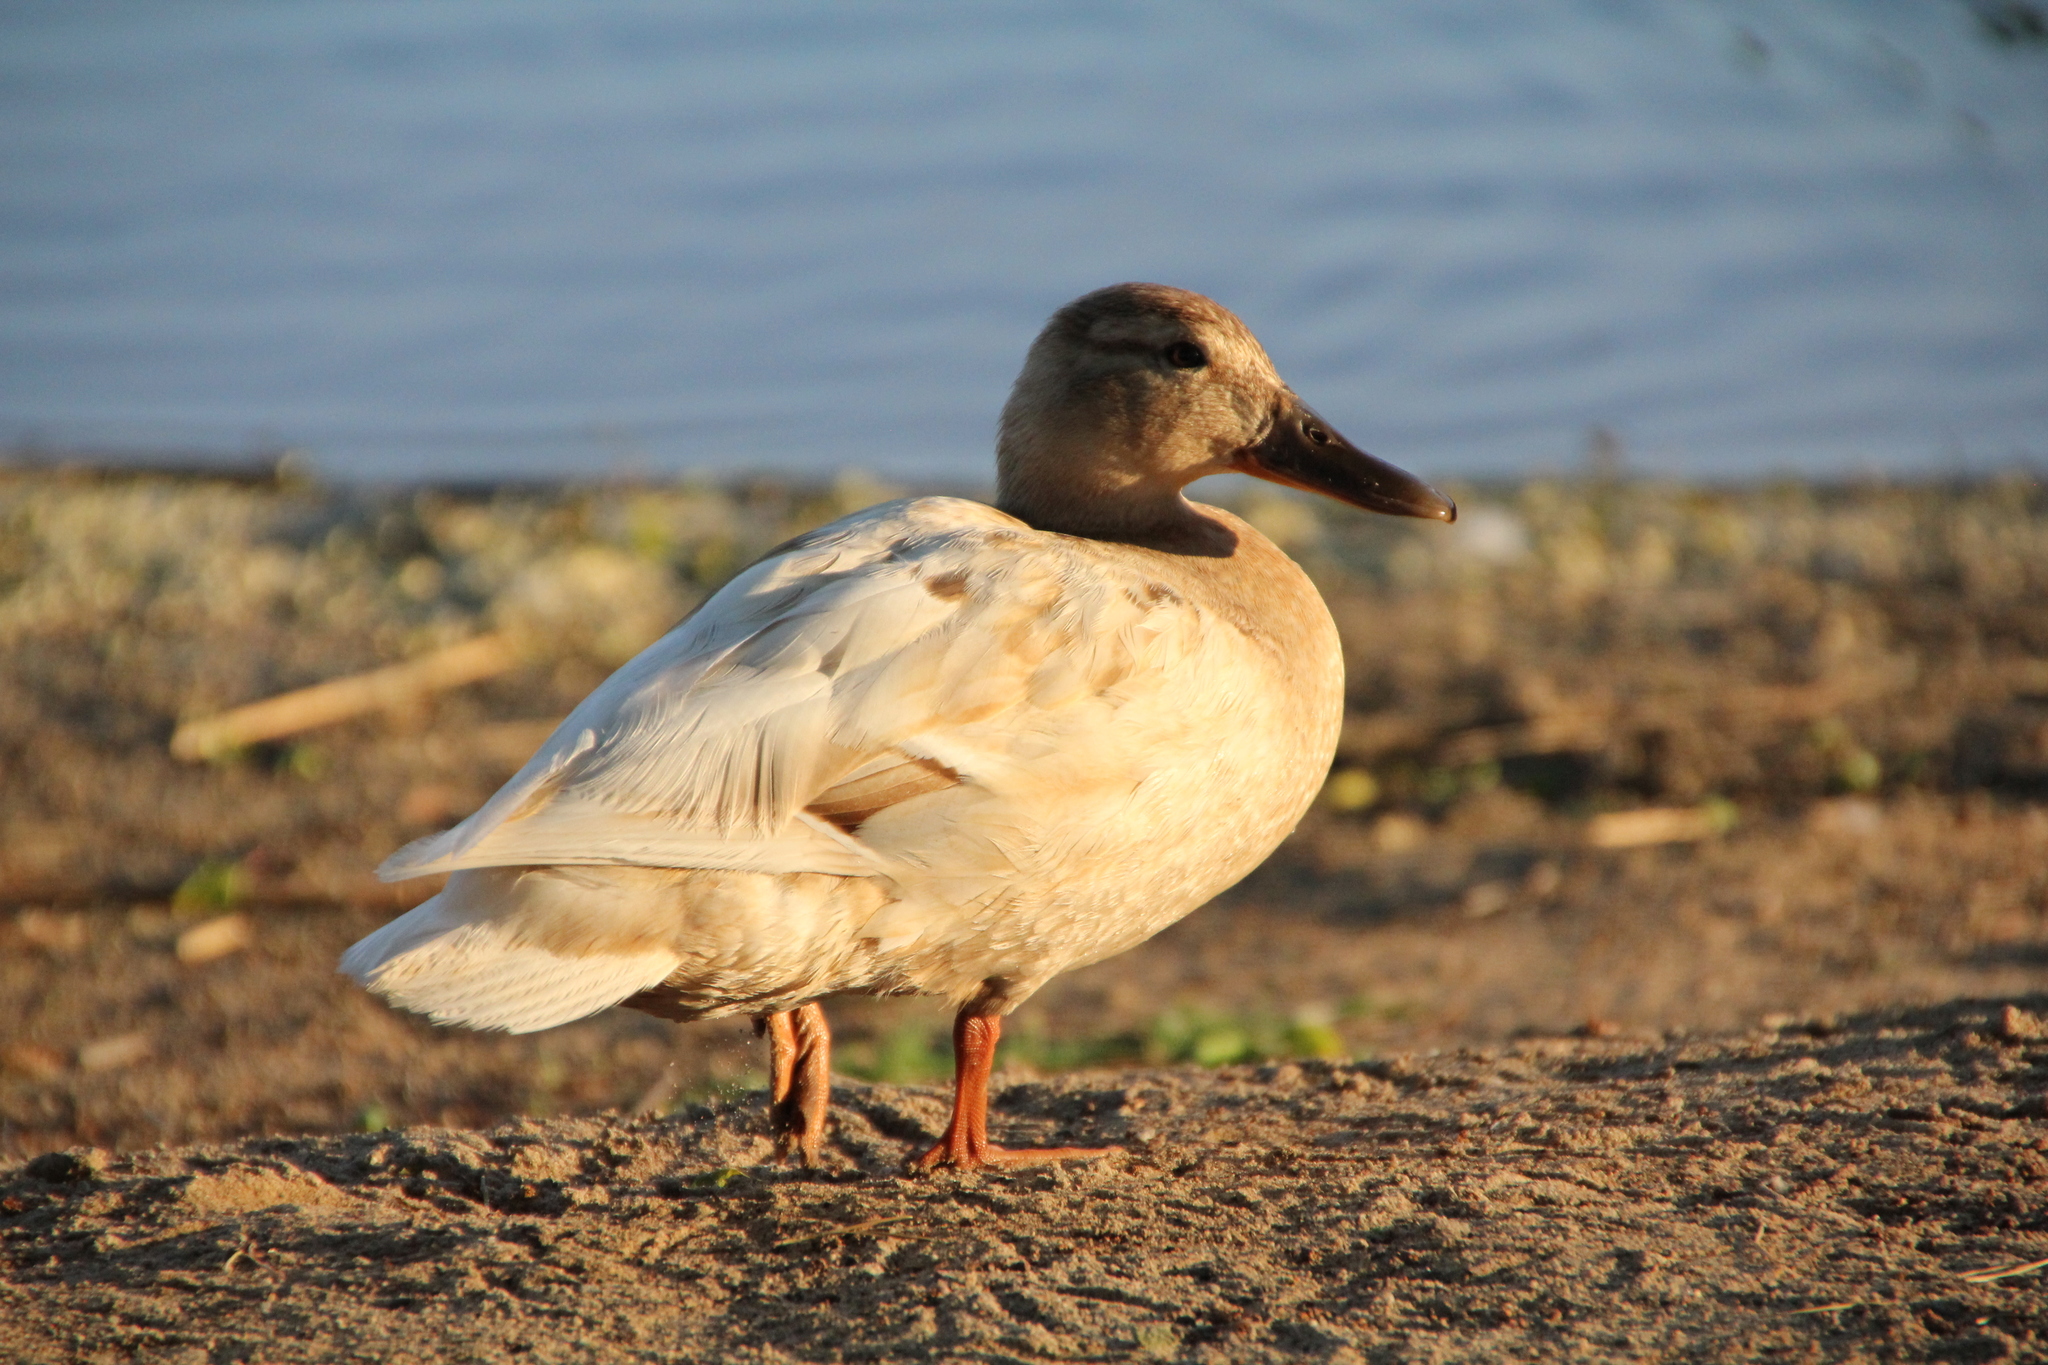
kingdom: Animalia
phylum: Chordata
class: Aves
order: Anseriformes
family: Anatidae
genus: Anas
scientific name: Anas platyrhynchos
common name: Mallard
